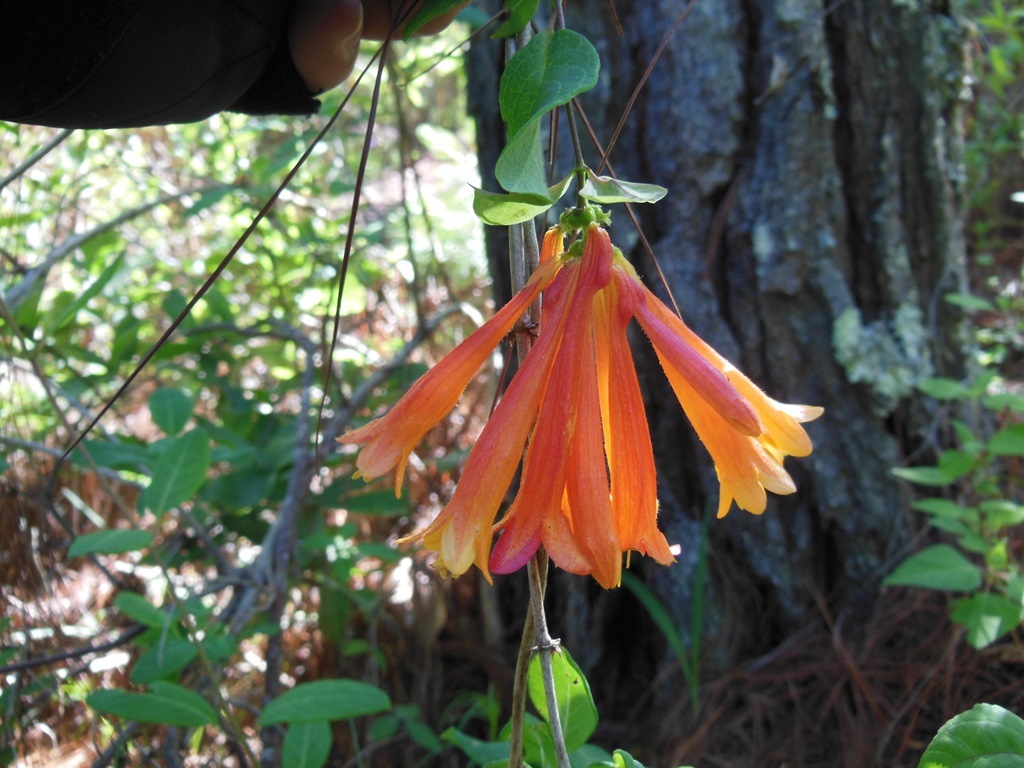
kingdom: Plantae
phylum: Tracheophyta
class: Magnoliopsida
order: Dipsacales
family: Caprifoliaceae
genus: Lonicera
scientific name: Lonicera pilosa
